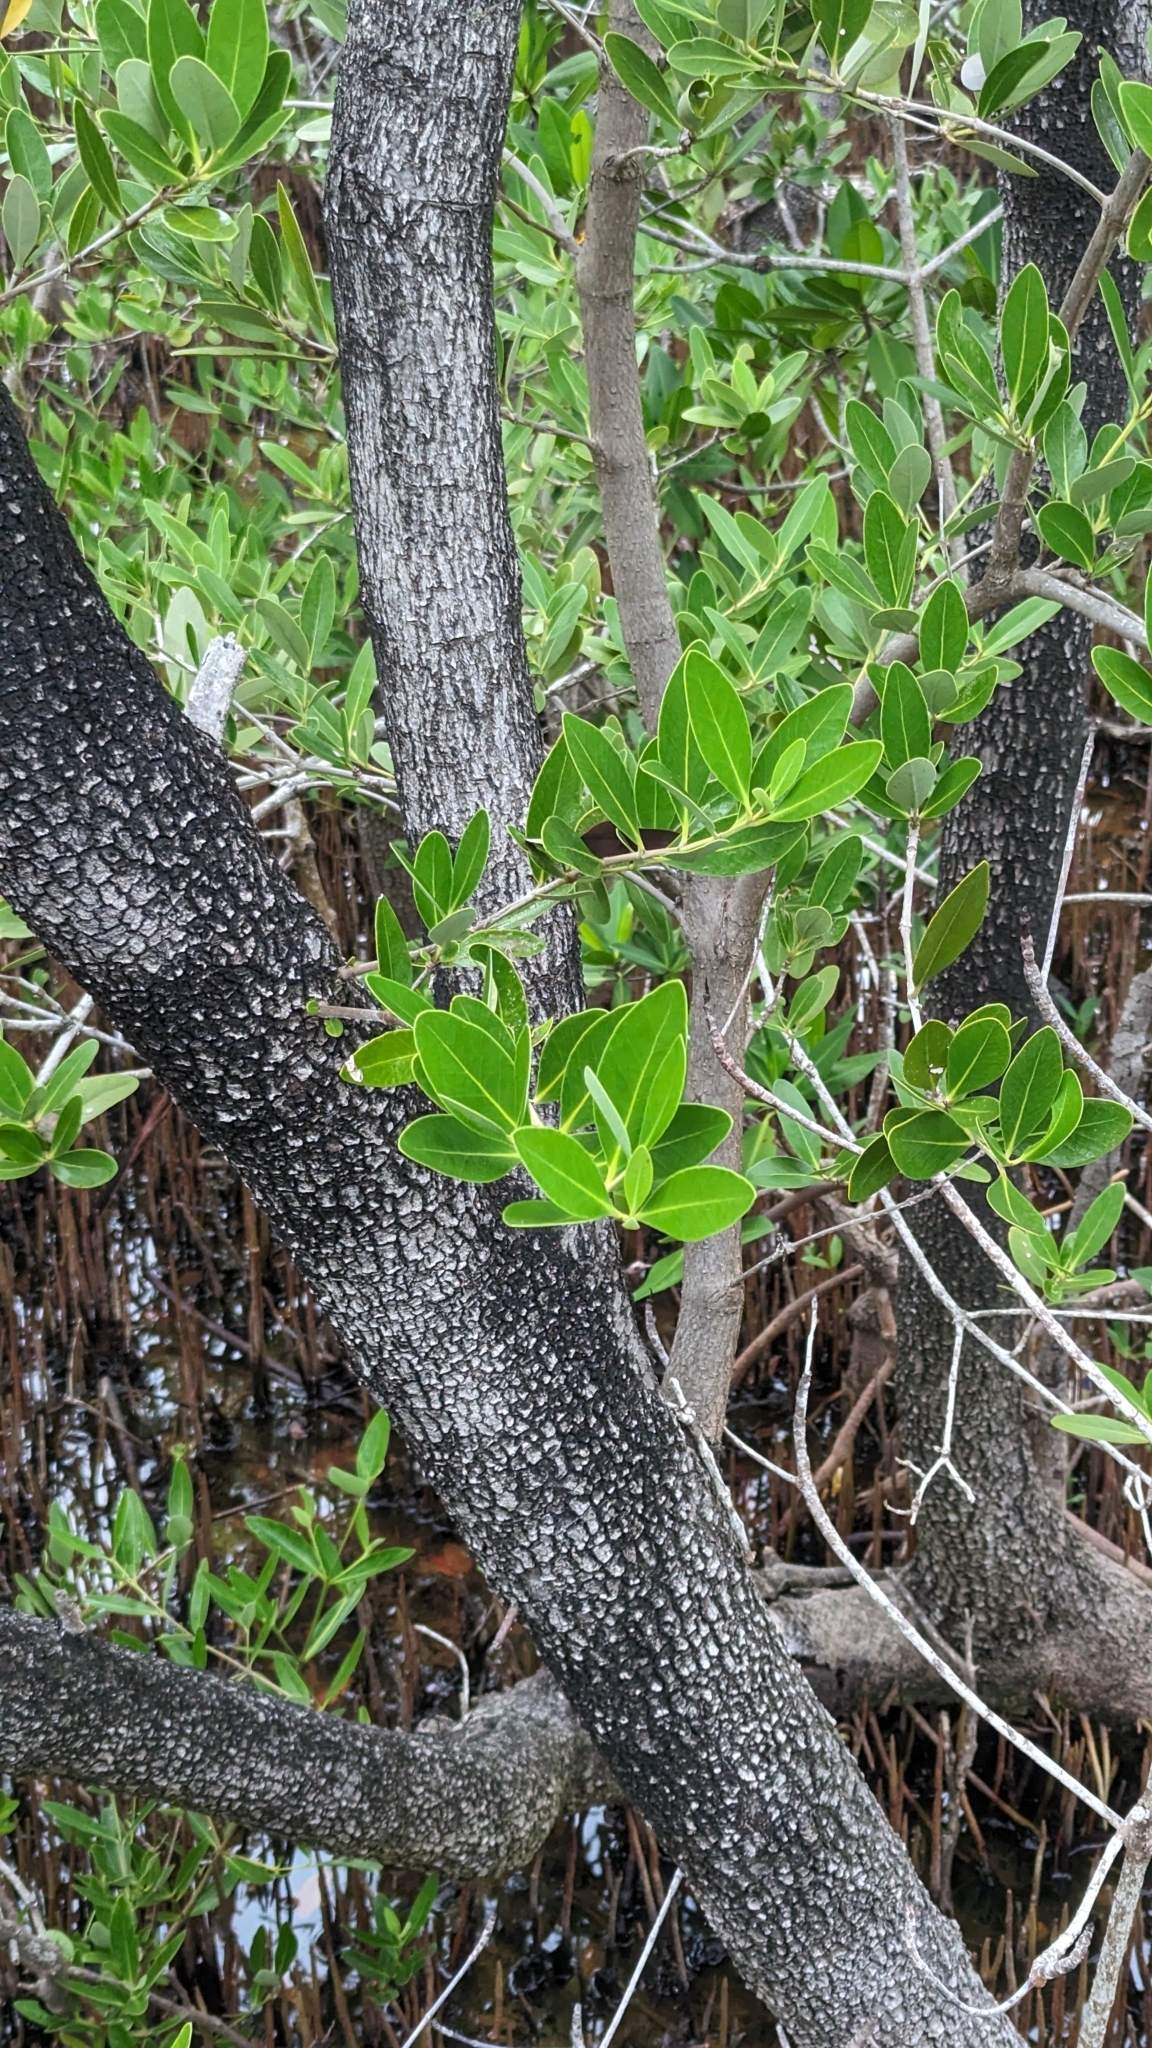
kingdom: Plantae
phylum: Tracheophyta
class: Magnoliopsida
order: Lamiales
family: Acanthaceae
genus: Avicennia
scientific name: Avicennia germinans
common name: Black mangrove
